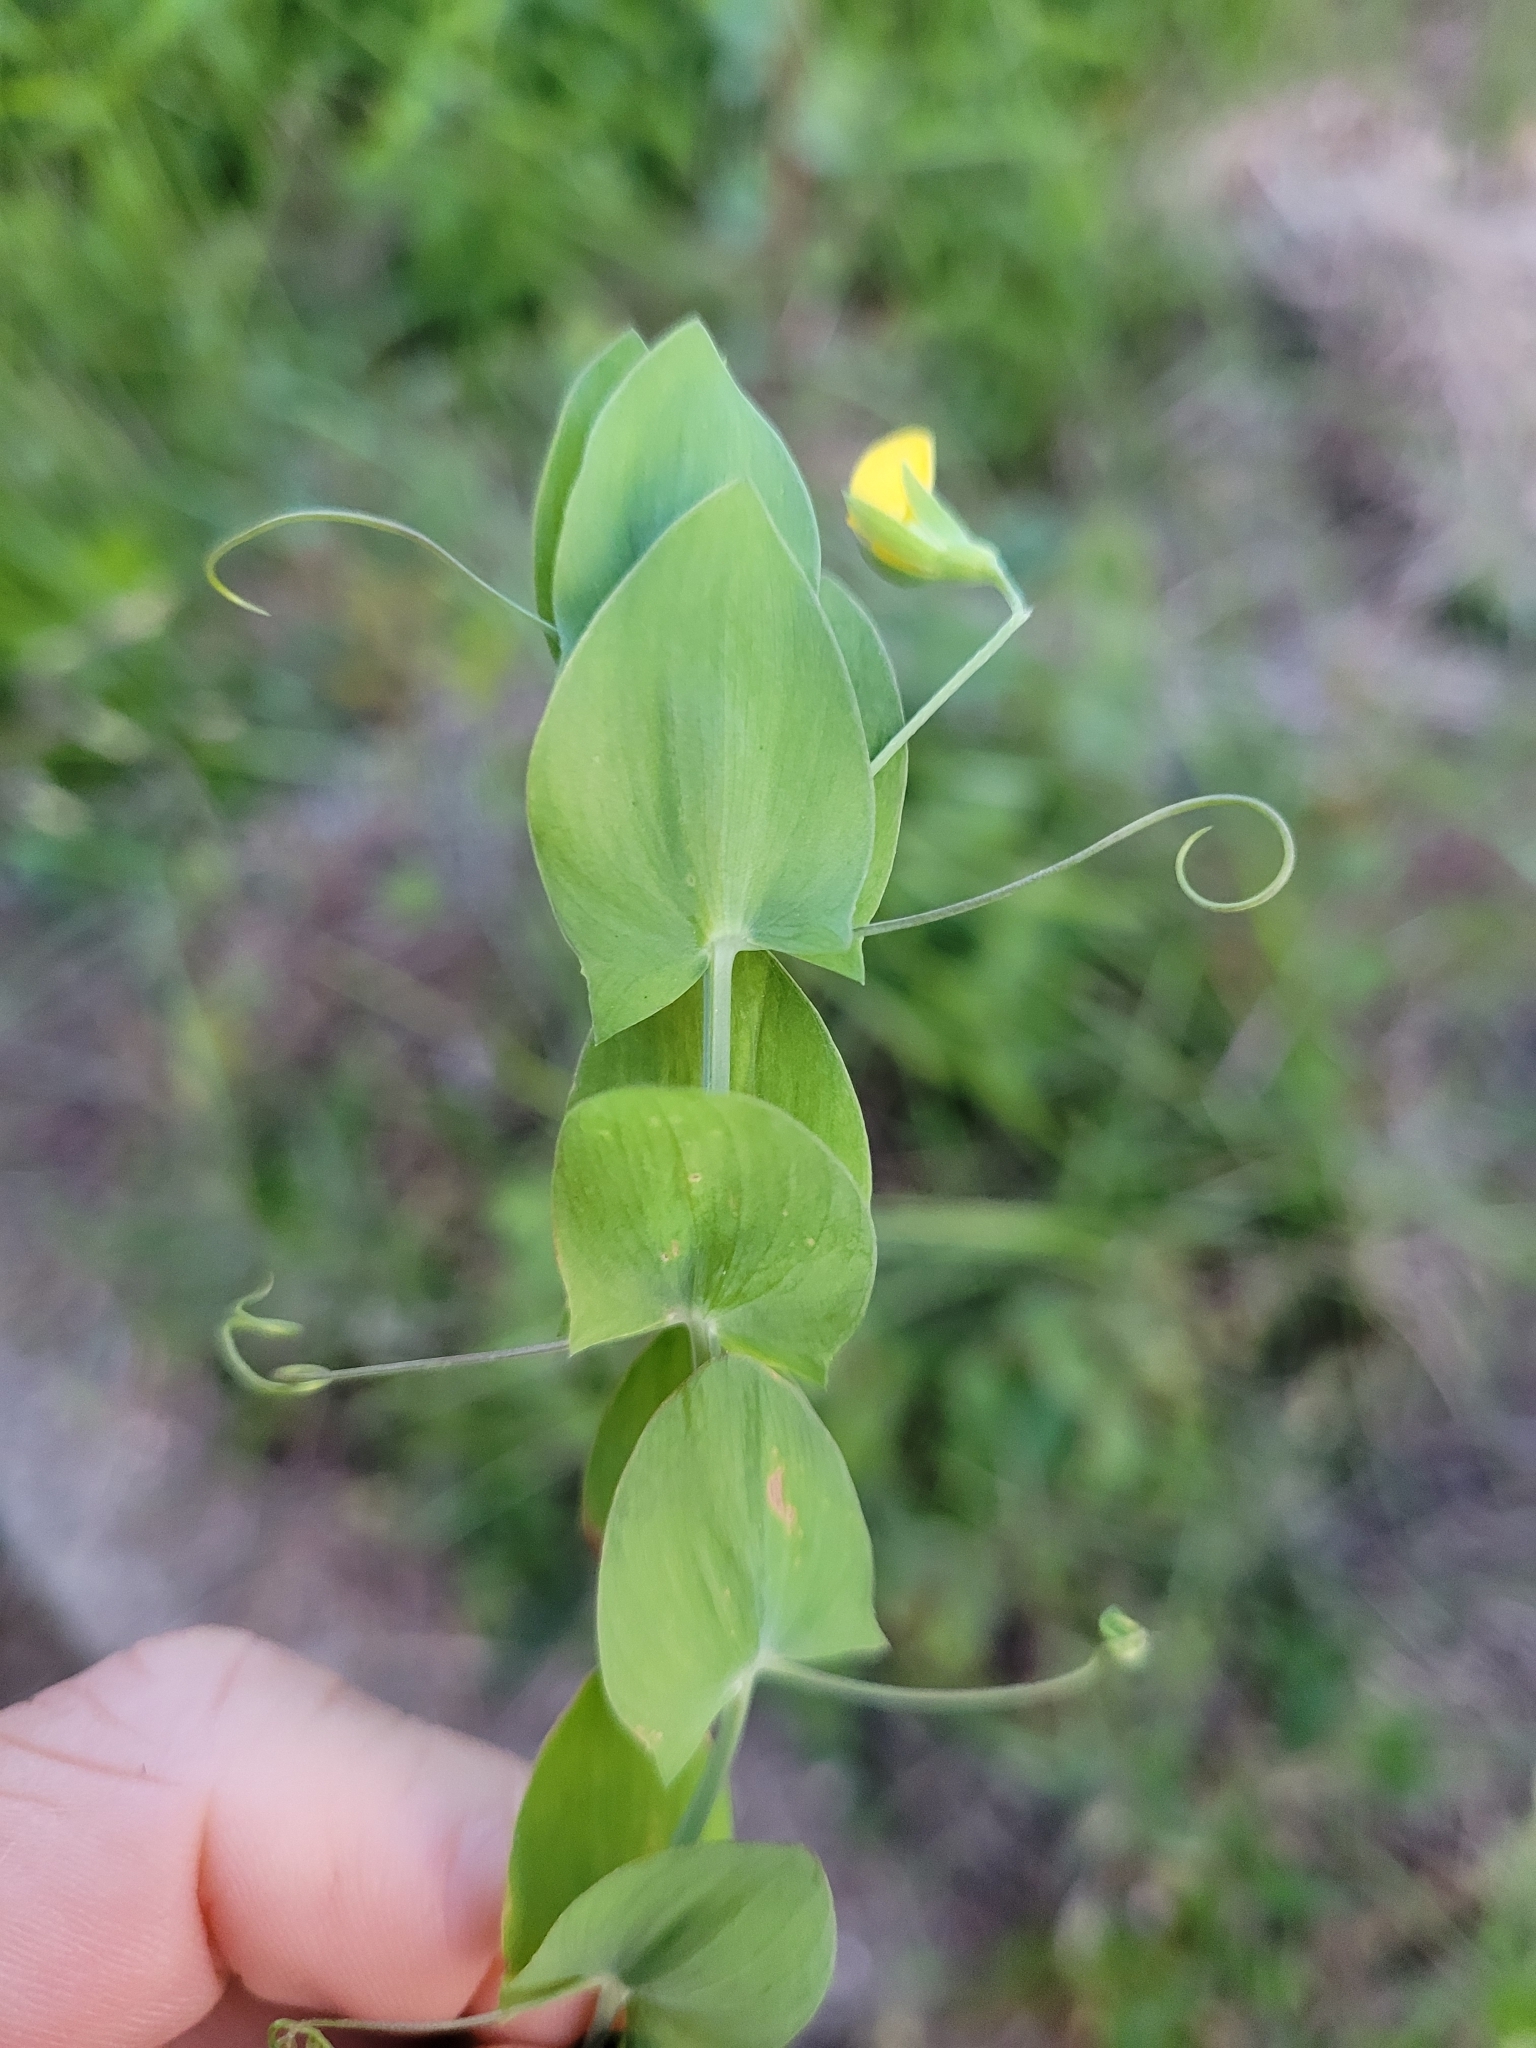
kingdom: Plantae
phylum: Tracheophyta
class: Magnoliopsida
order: Fabales
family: Fabaceae
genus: Lathyrus
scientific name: Lathyrus aphaca
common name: Yellow vetchling
